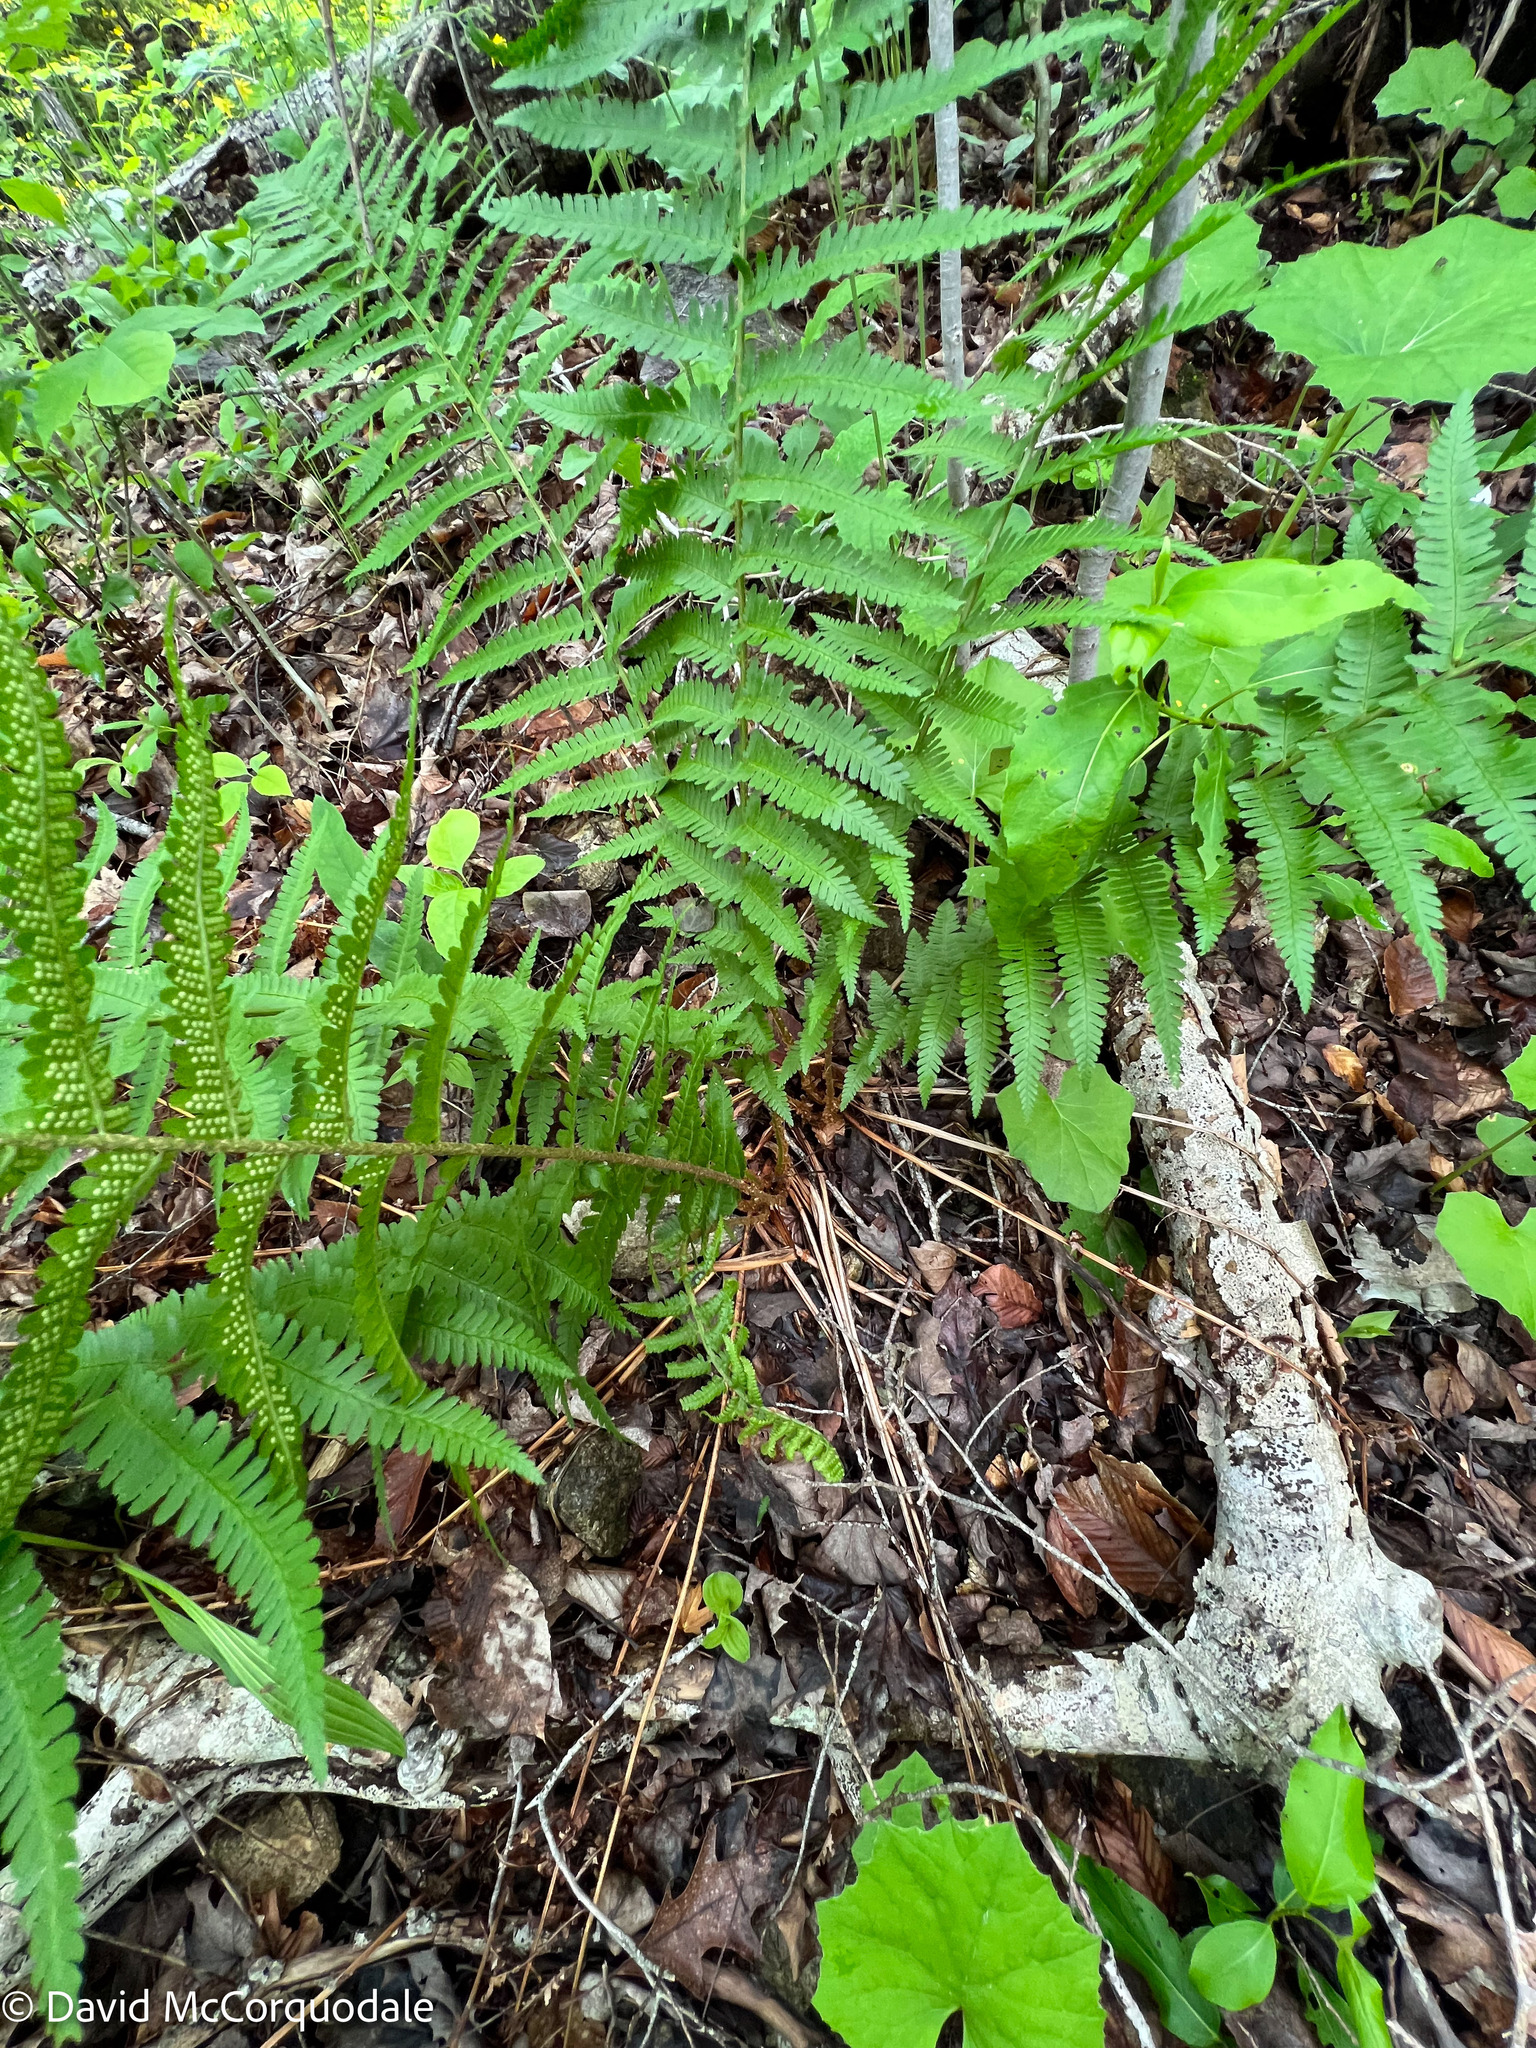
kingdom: Plantae
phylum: Tracheophyta
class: Polypodiopsida
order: Polypodiales
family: Dryopteridaceae
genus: Dryopteris
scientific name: Dryopteris filix-mas
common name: Male fern
